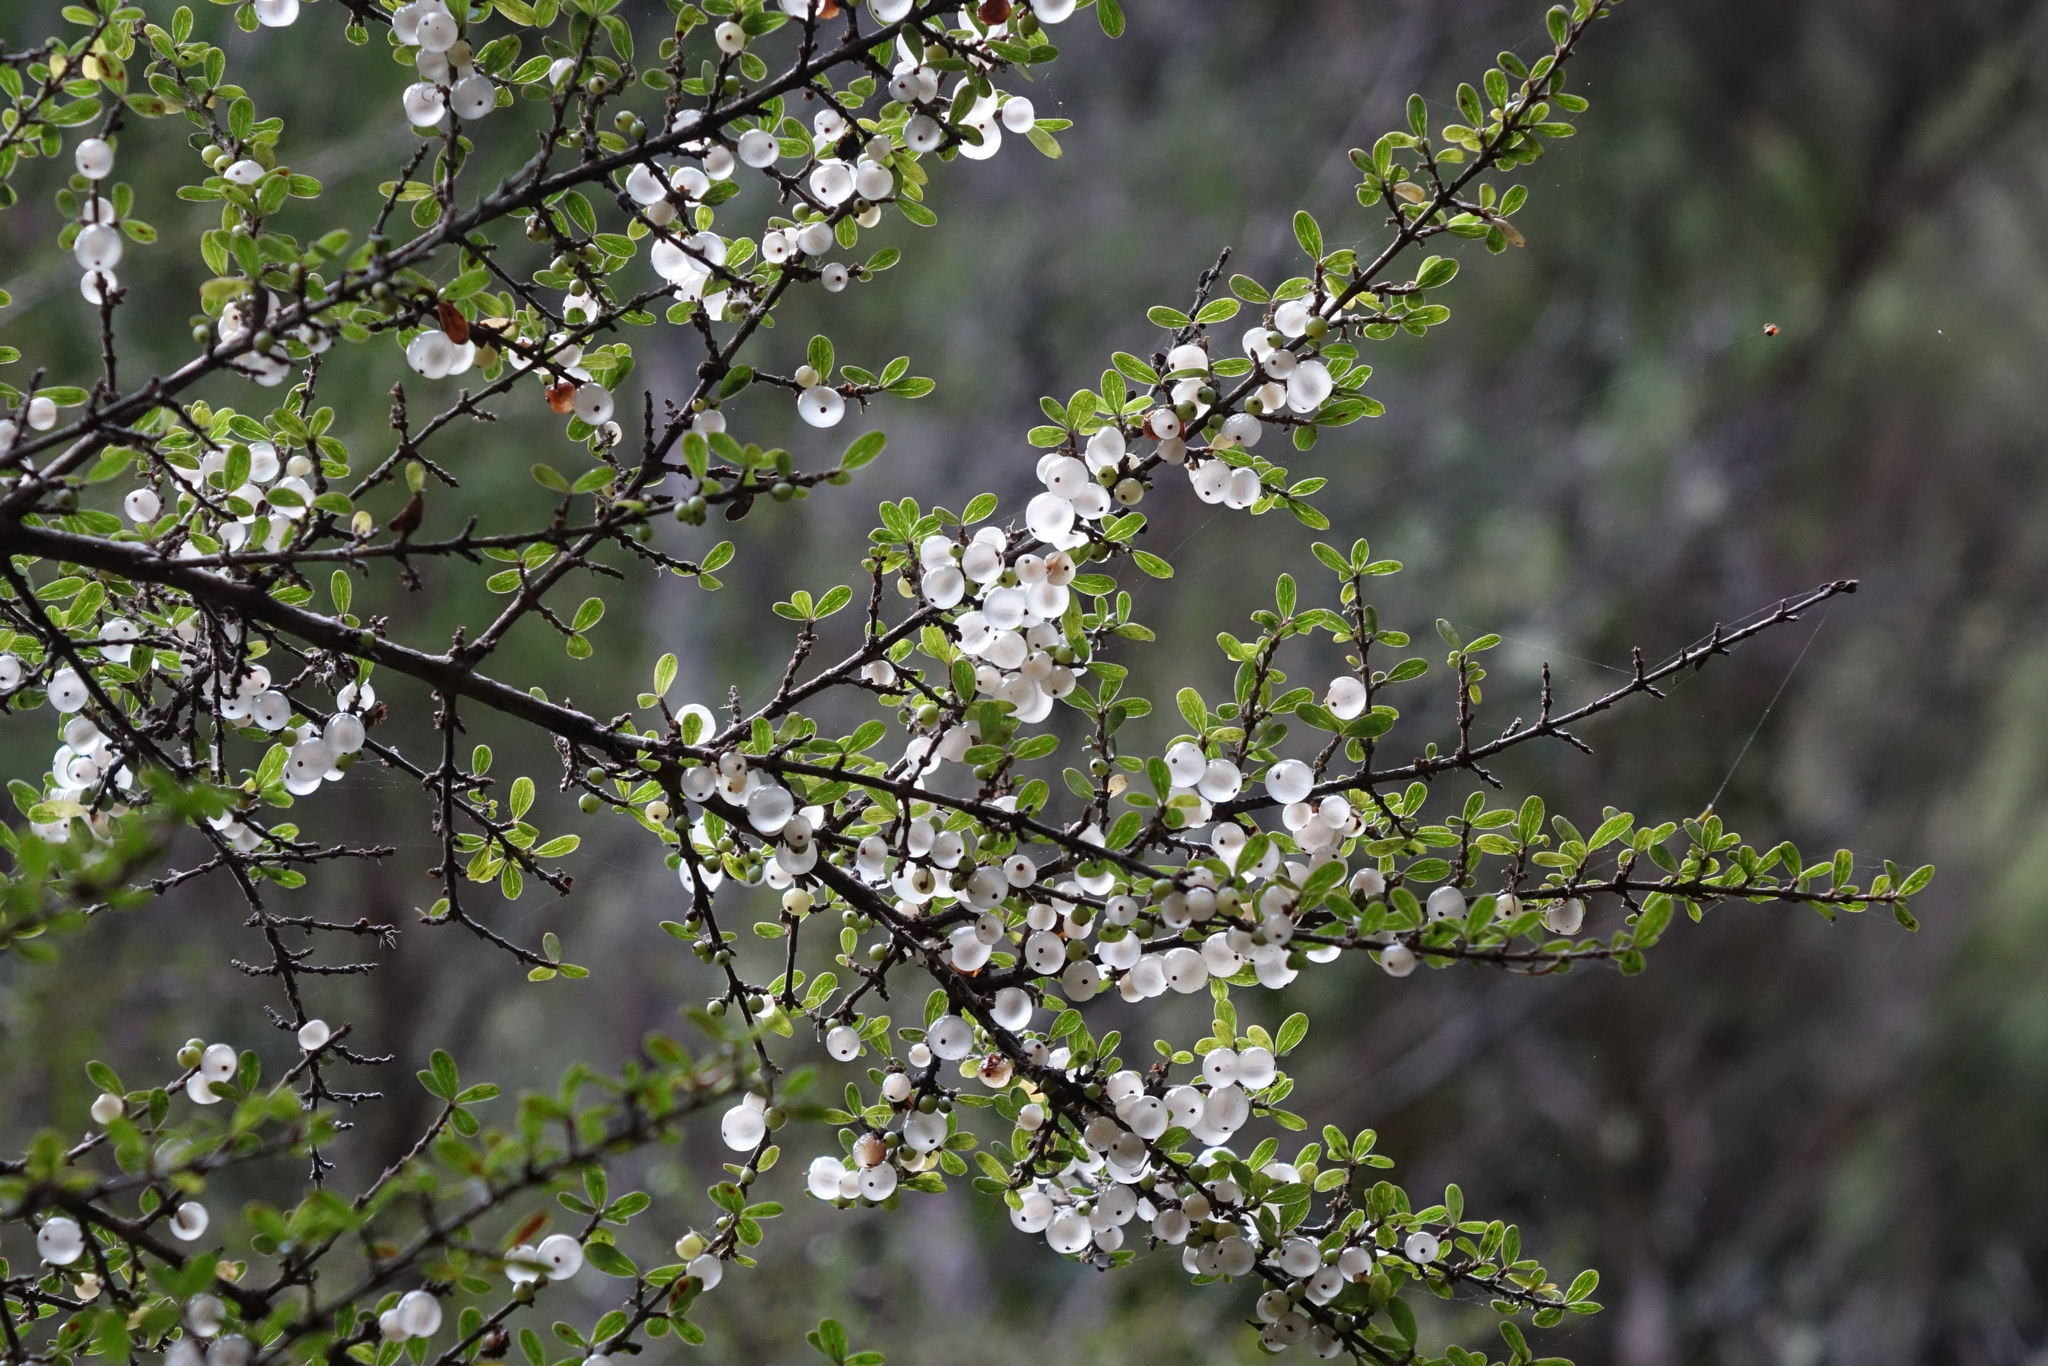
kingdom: Plantae
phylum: Tracheophyta
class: Magnoliopsida
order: Gentianales
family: Rubiaceae
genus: Coprosma
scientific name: Coprosma dumosa
